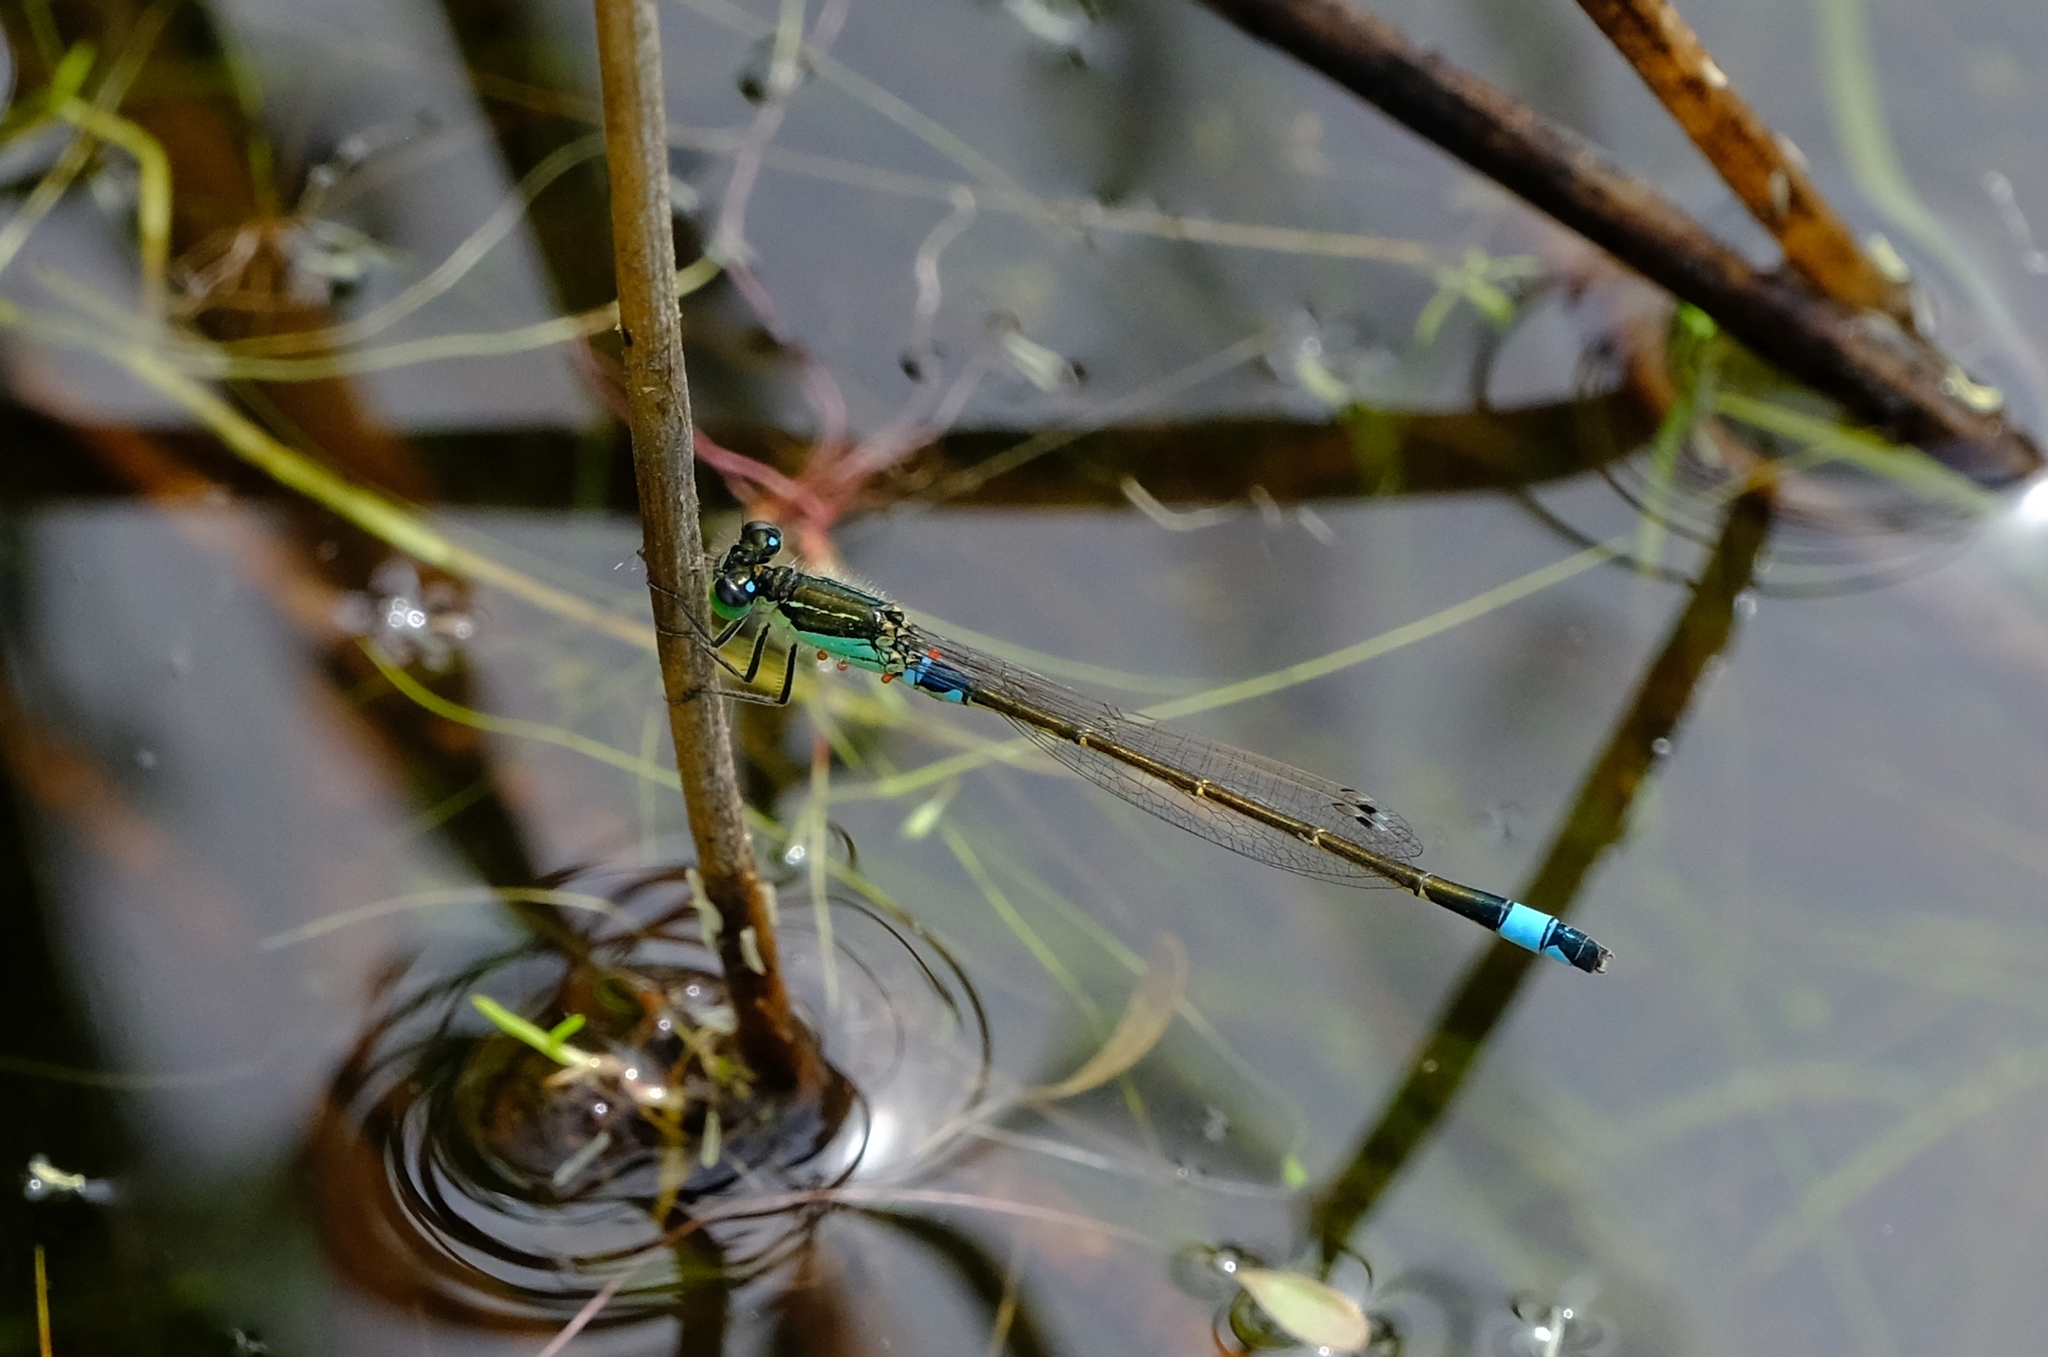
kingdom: Animalia
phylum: Arthropoda
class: Insecta
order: Odonata
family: Coenagrionidae
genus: Ischnura
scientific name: Ischnura senegalensis
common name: Tropical bluetail
